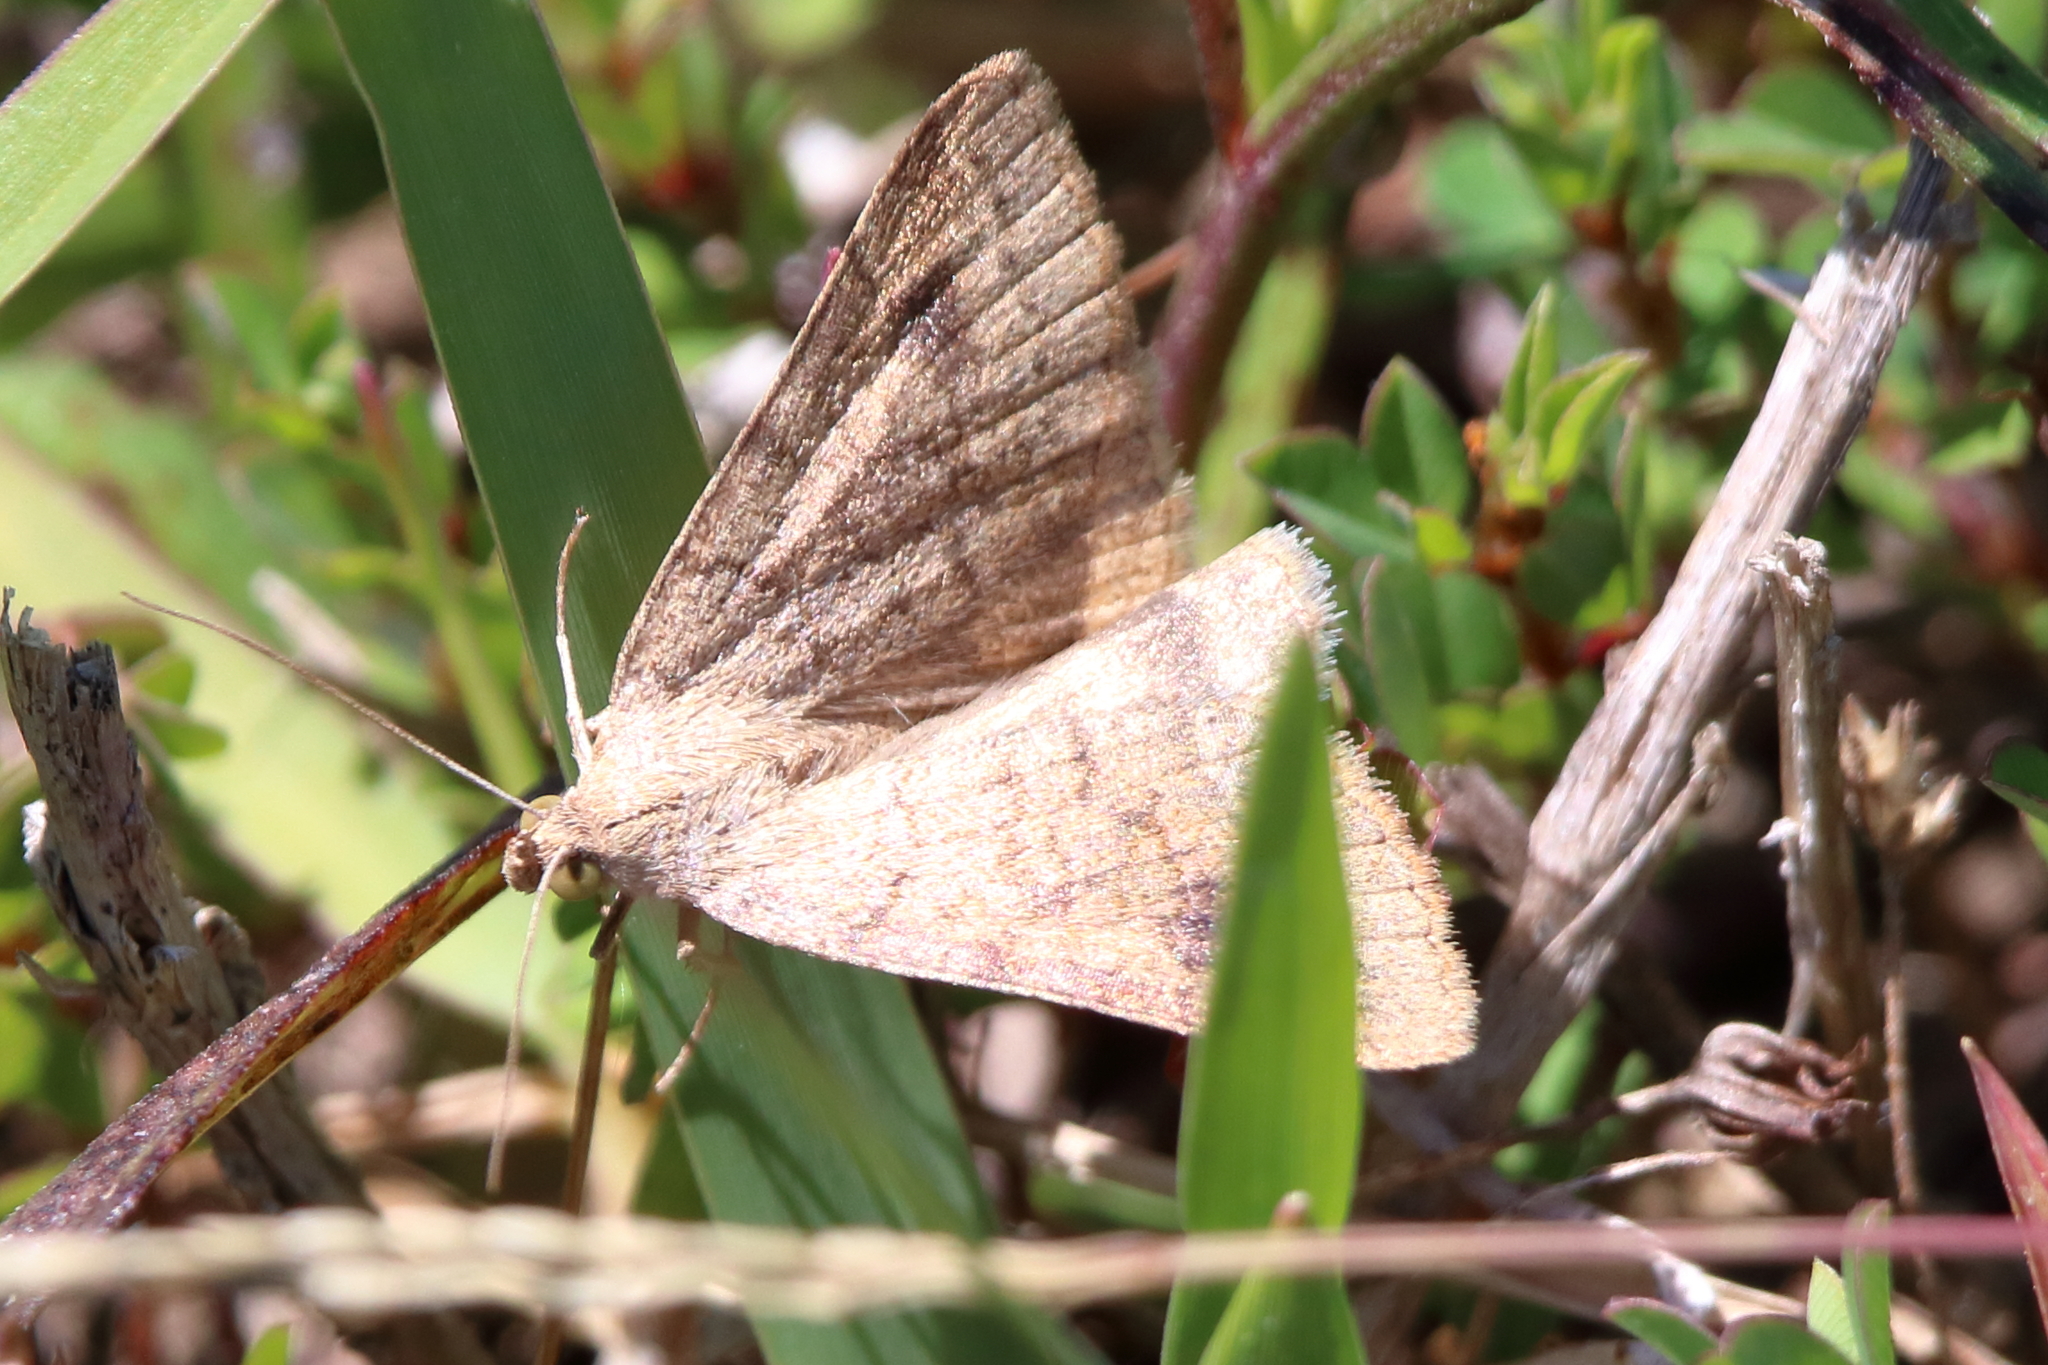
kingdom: Animalia
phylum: Arthropoda
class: Insecta
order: Lepidoptera
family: Erebidae
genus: Caenurgia
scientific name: Caenurgia chloropha
